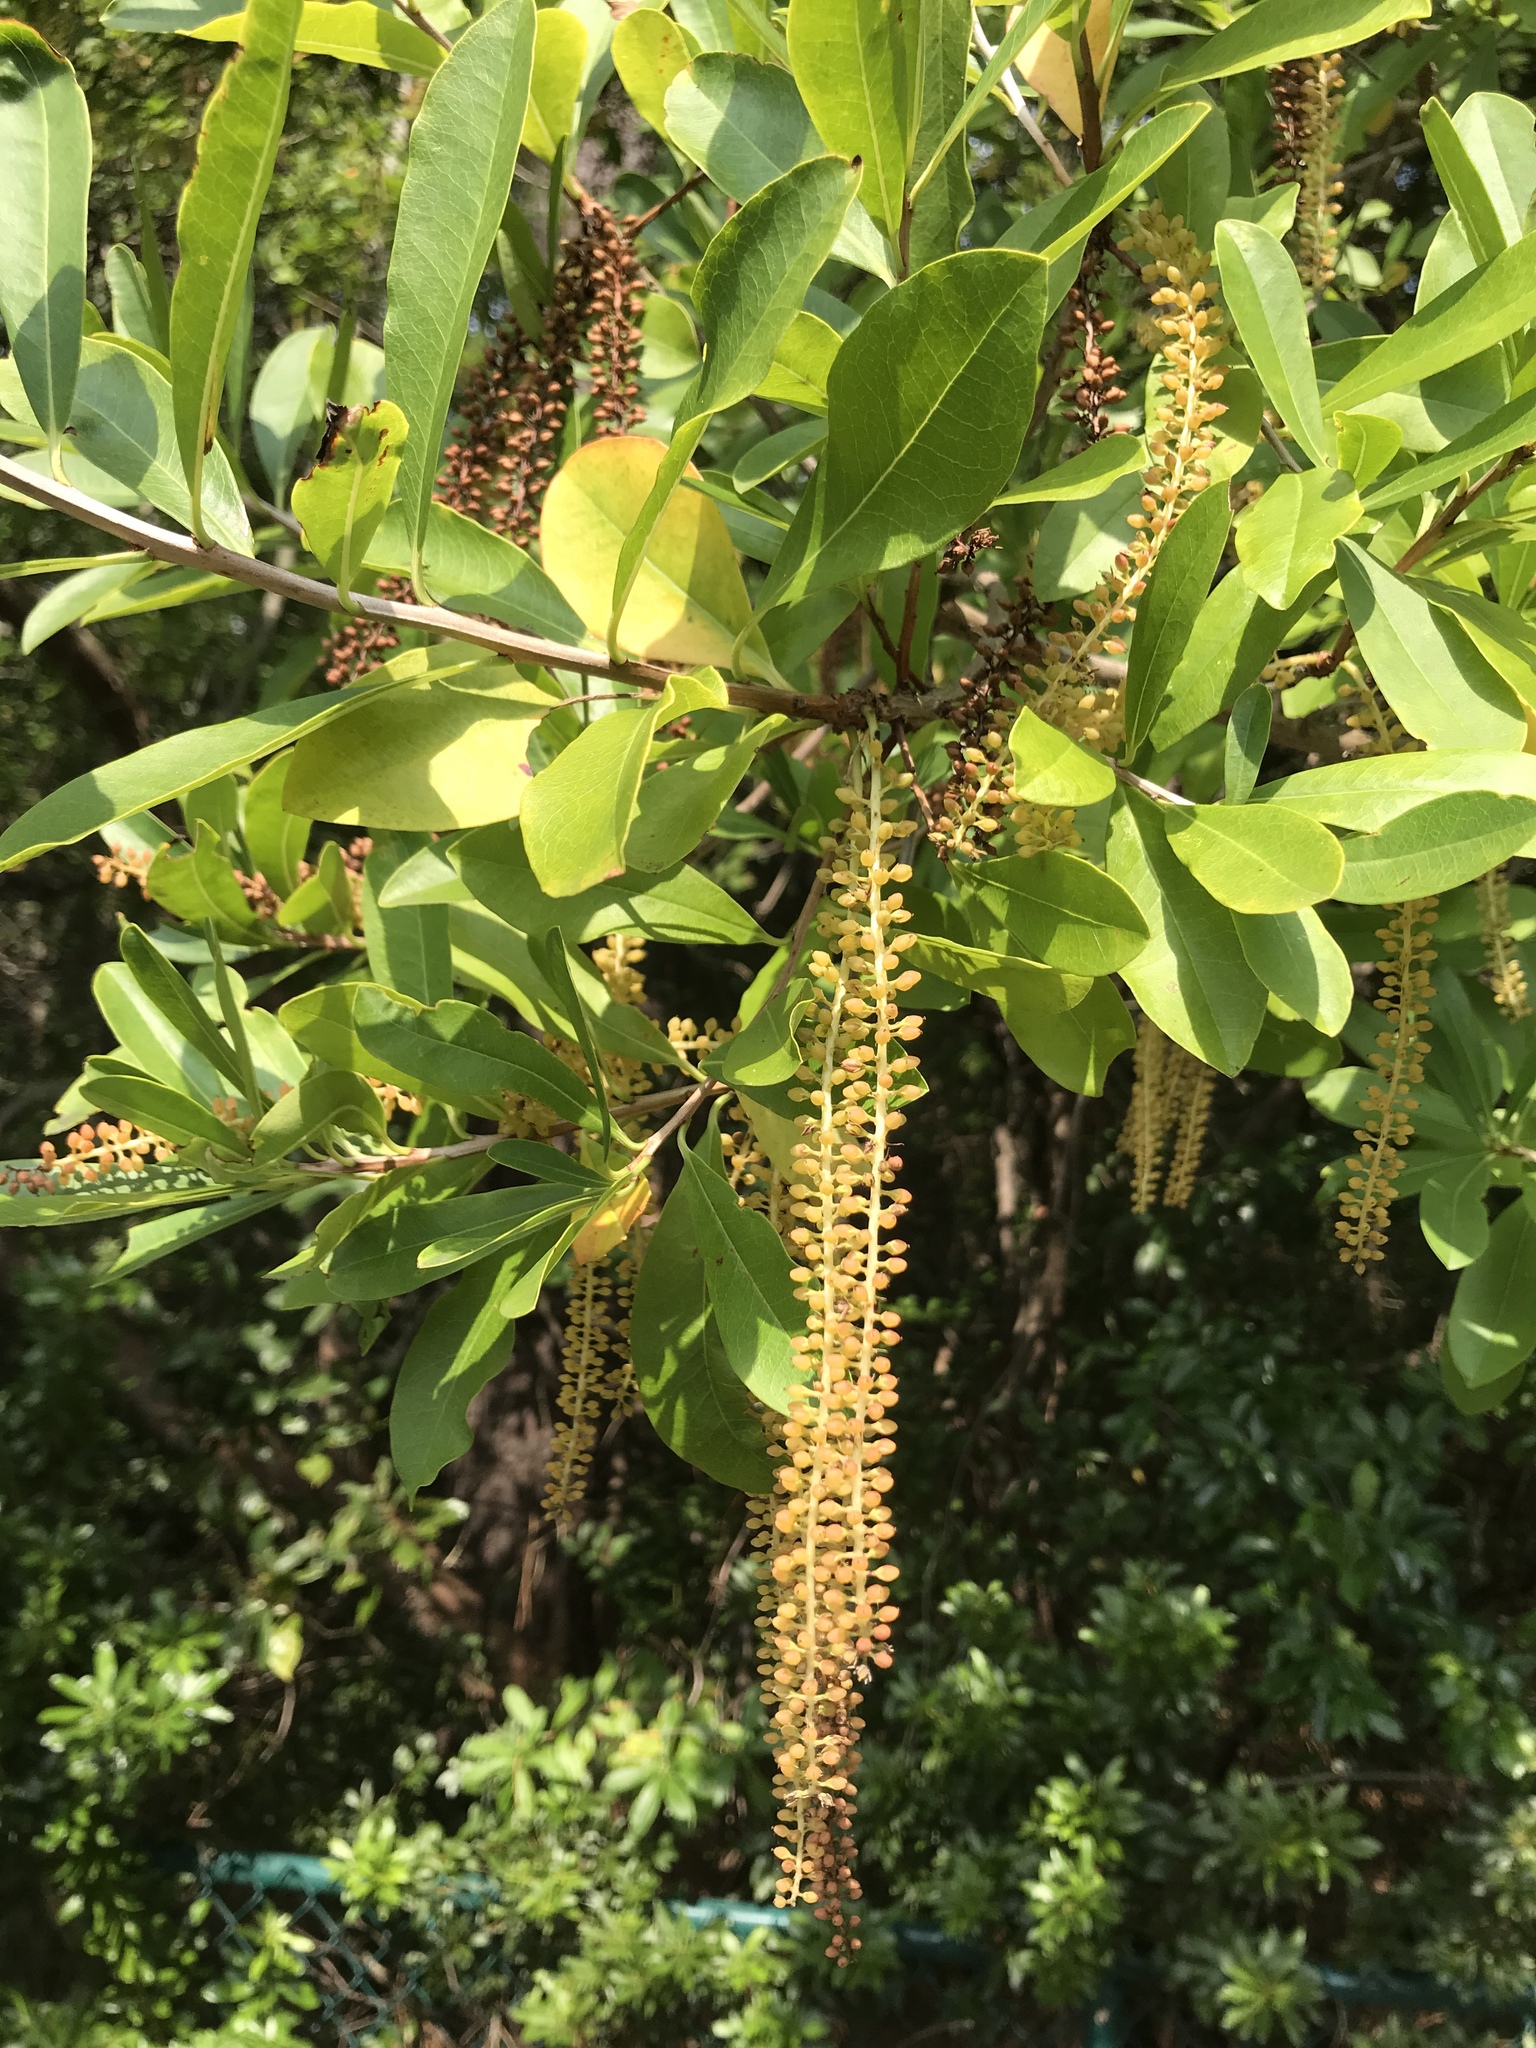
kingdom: Plantae
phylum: Tracheophyta
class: Magnoliopsida
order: Ericales
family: Cyrillaceae
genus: Cyrilla
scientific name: Cyrilla racemiflora
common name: Black titi
